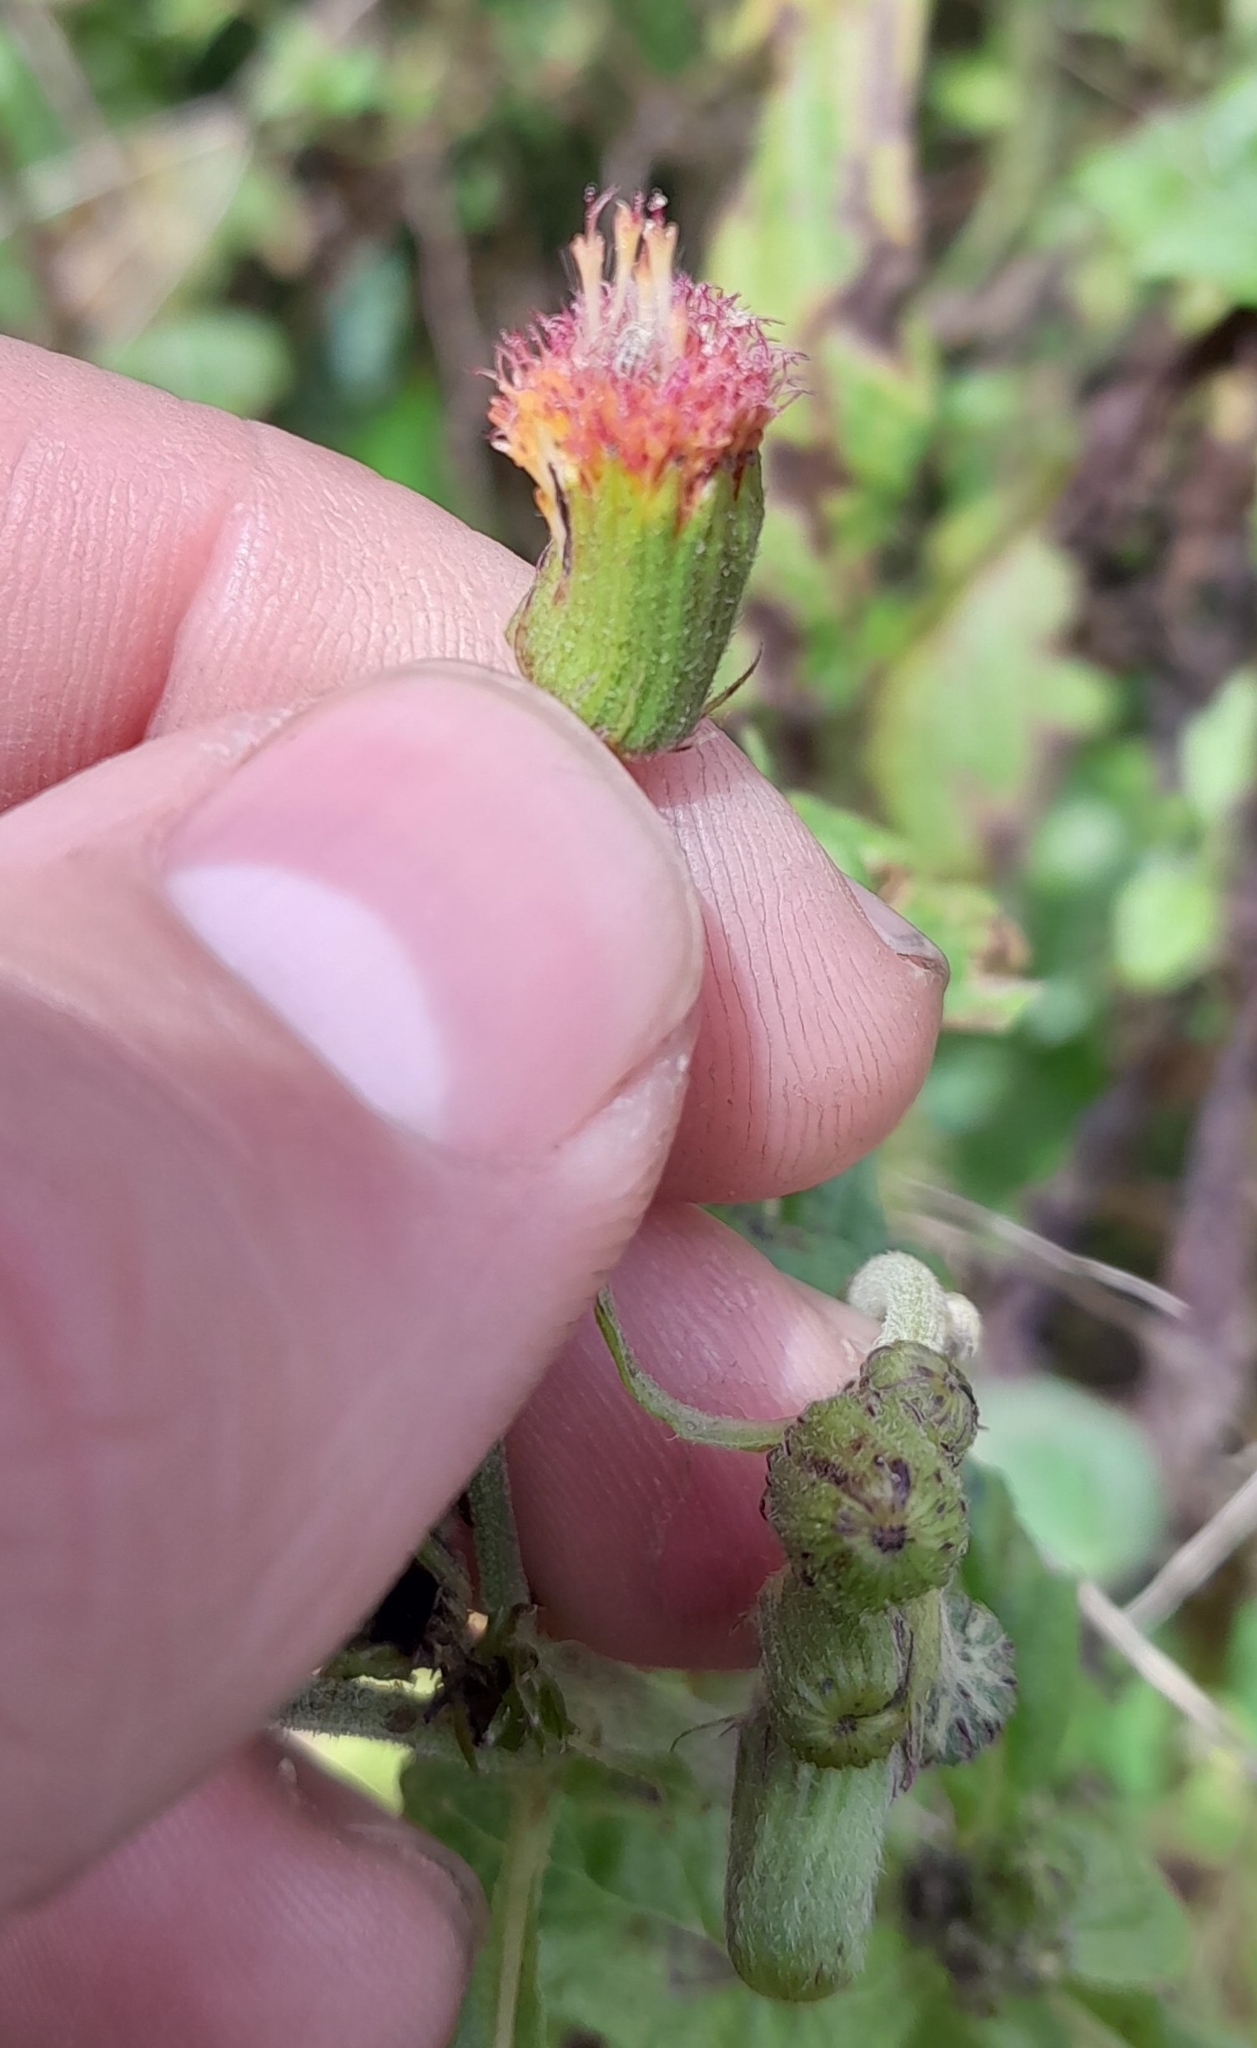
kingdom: Plantae
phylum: Tracheophyta
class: Magnoliopsida
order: Asterales
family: Asteraceae
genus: Crassocephalum
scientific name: Crassocephalum crepidioides
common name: Redflower ragleaf
